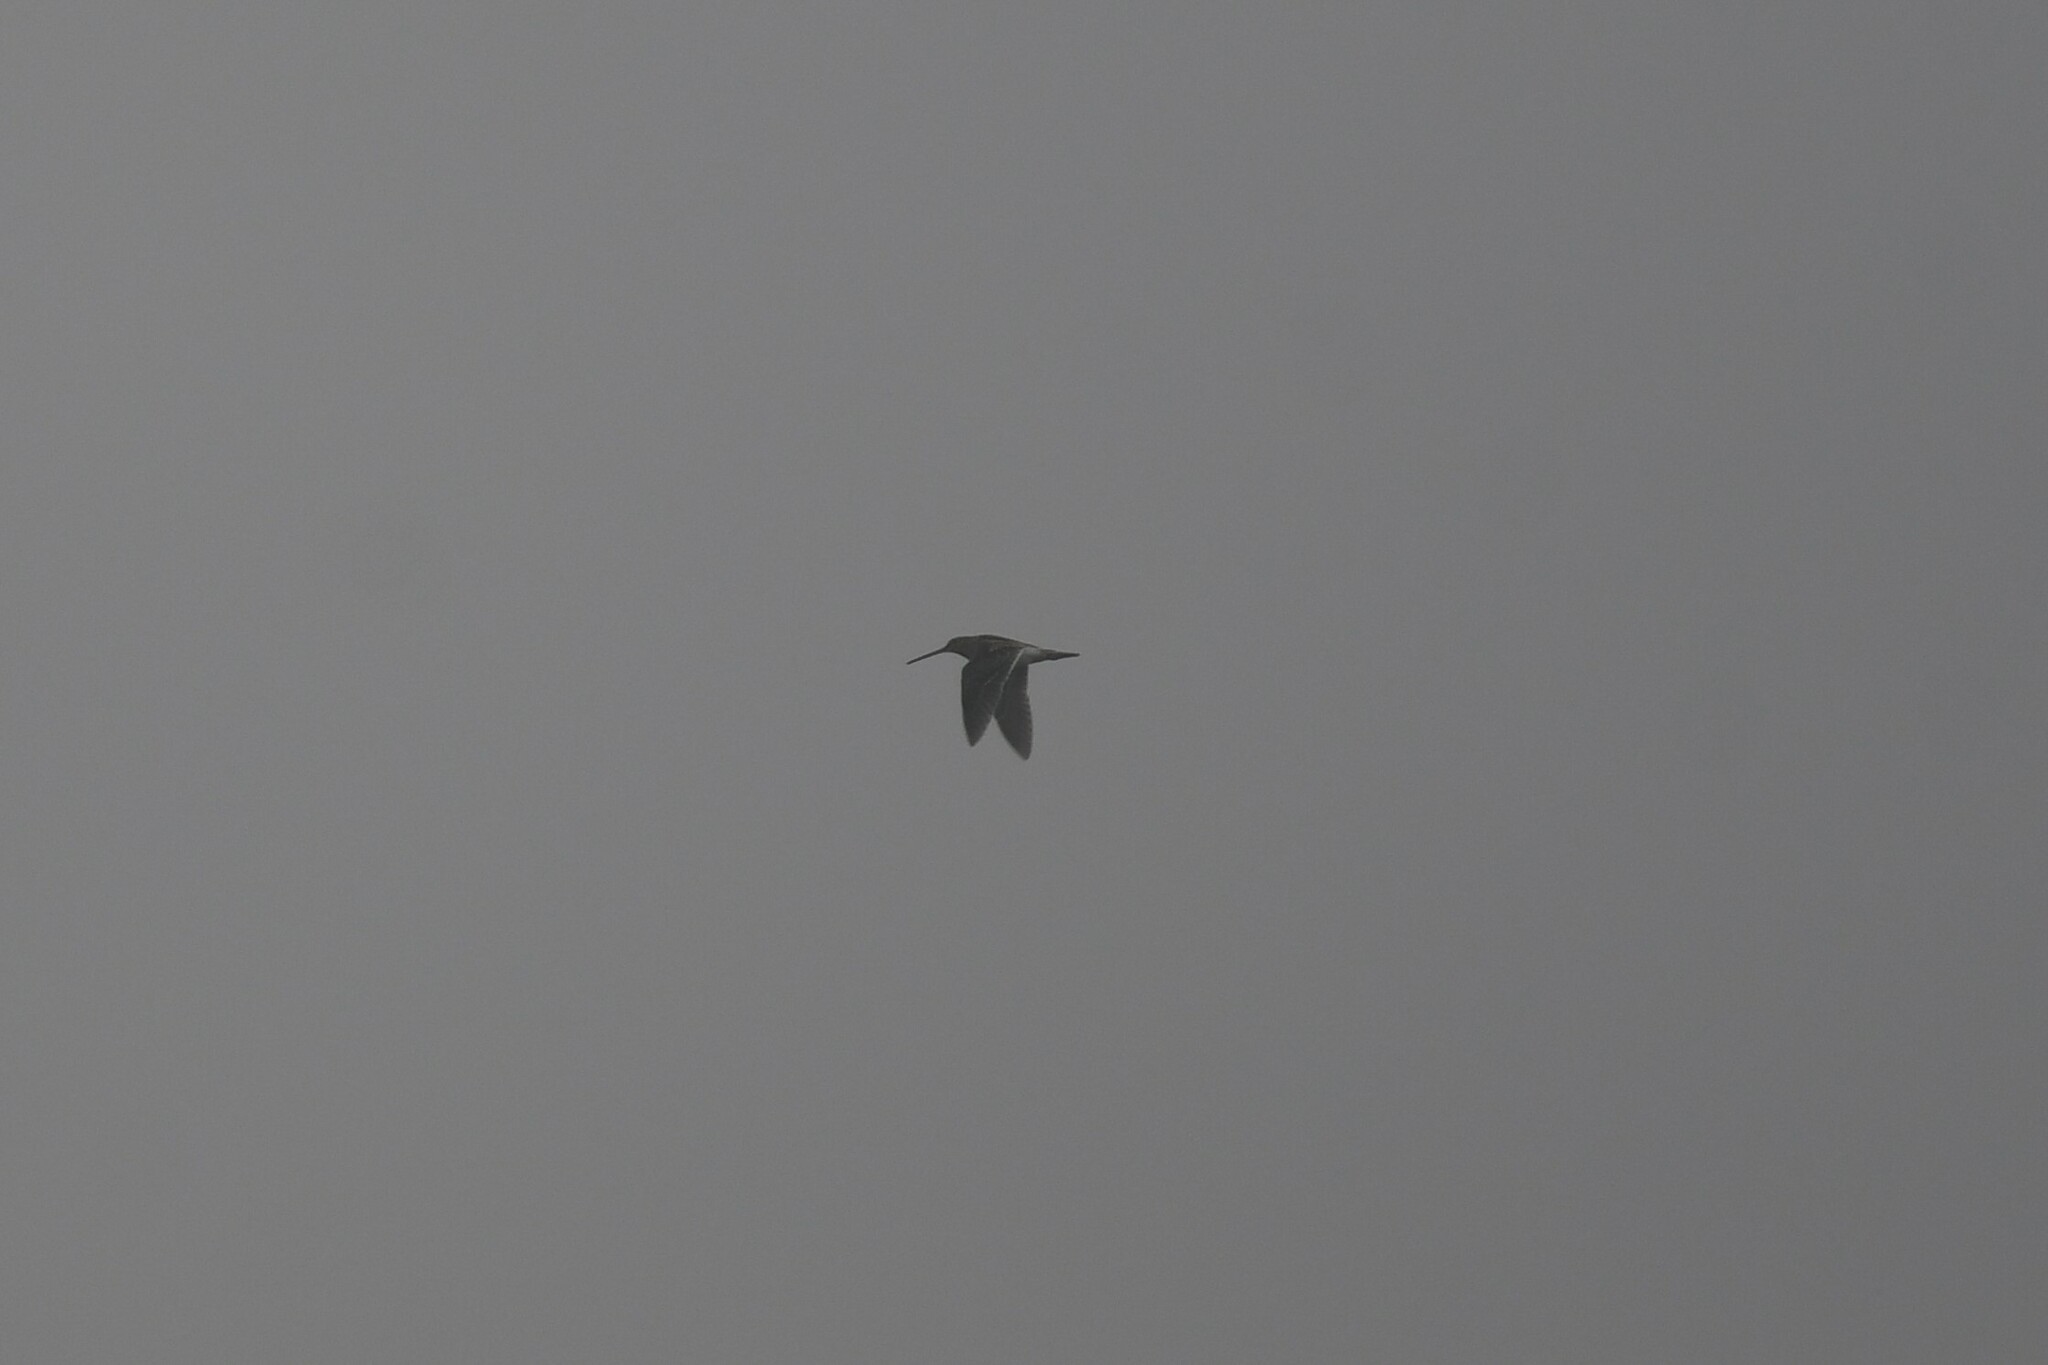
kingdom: Animalia
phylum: Chordata
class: Aves
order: Charadriiformes
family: Scolopacidae
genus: Gallinago
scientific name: Gallinago gallinago
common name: Common snipe
